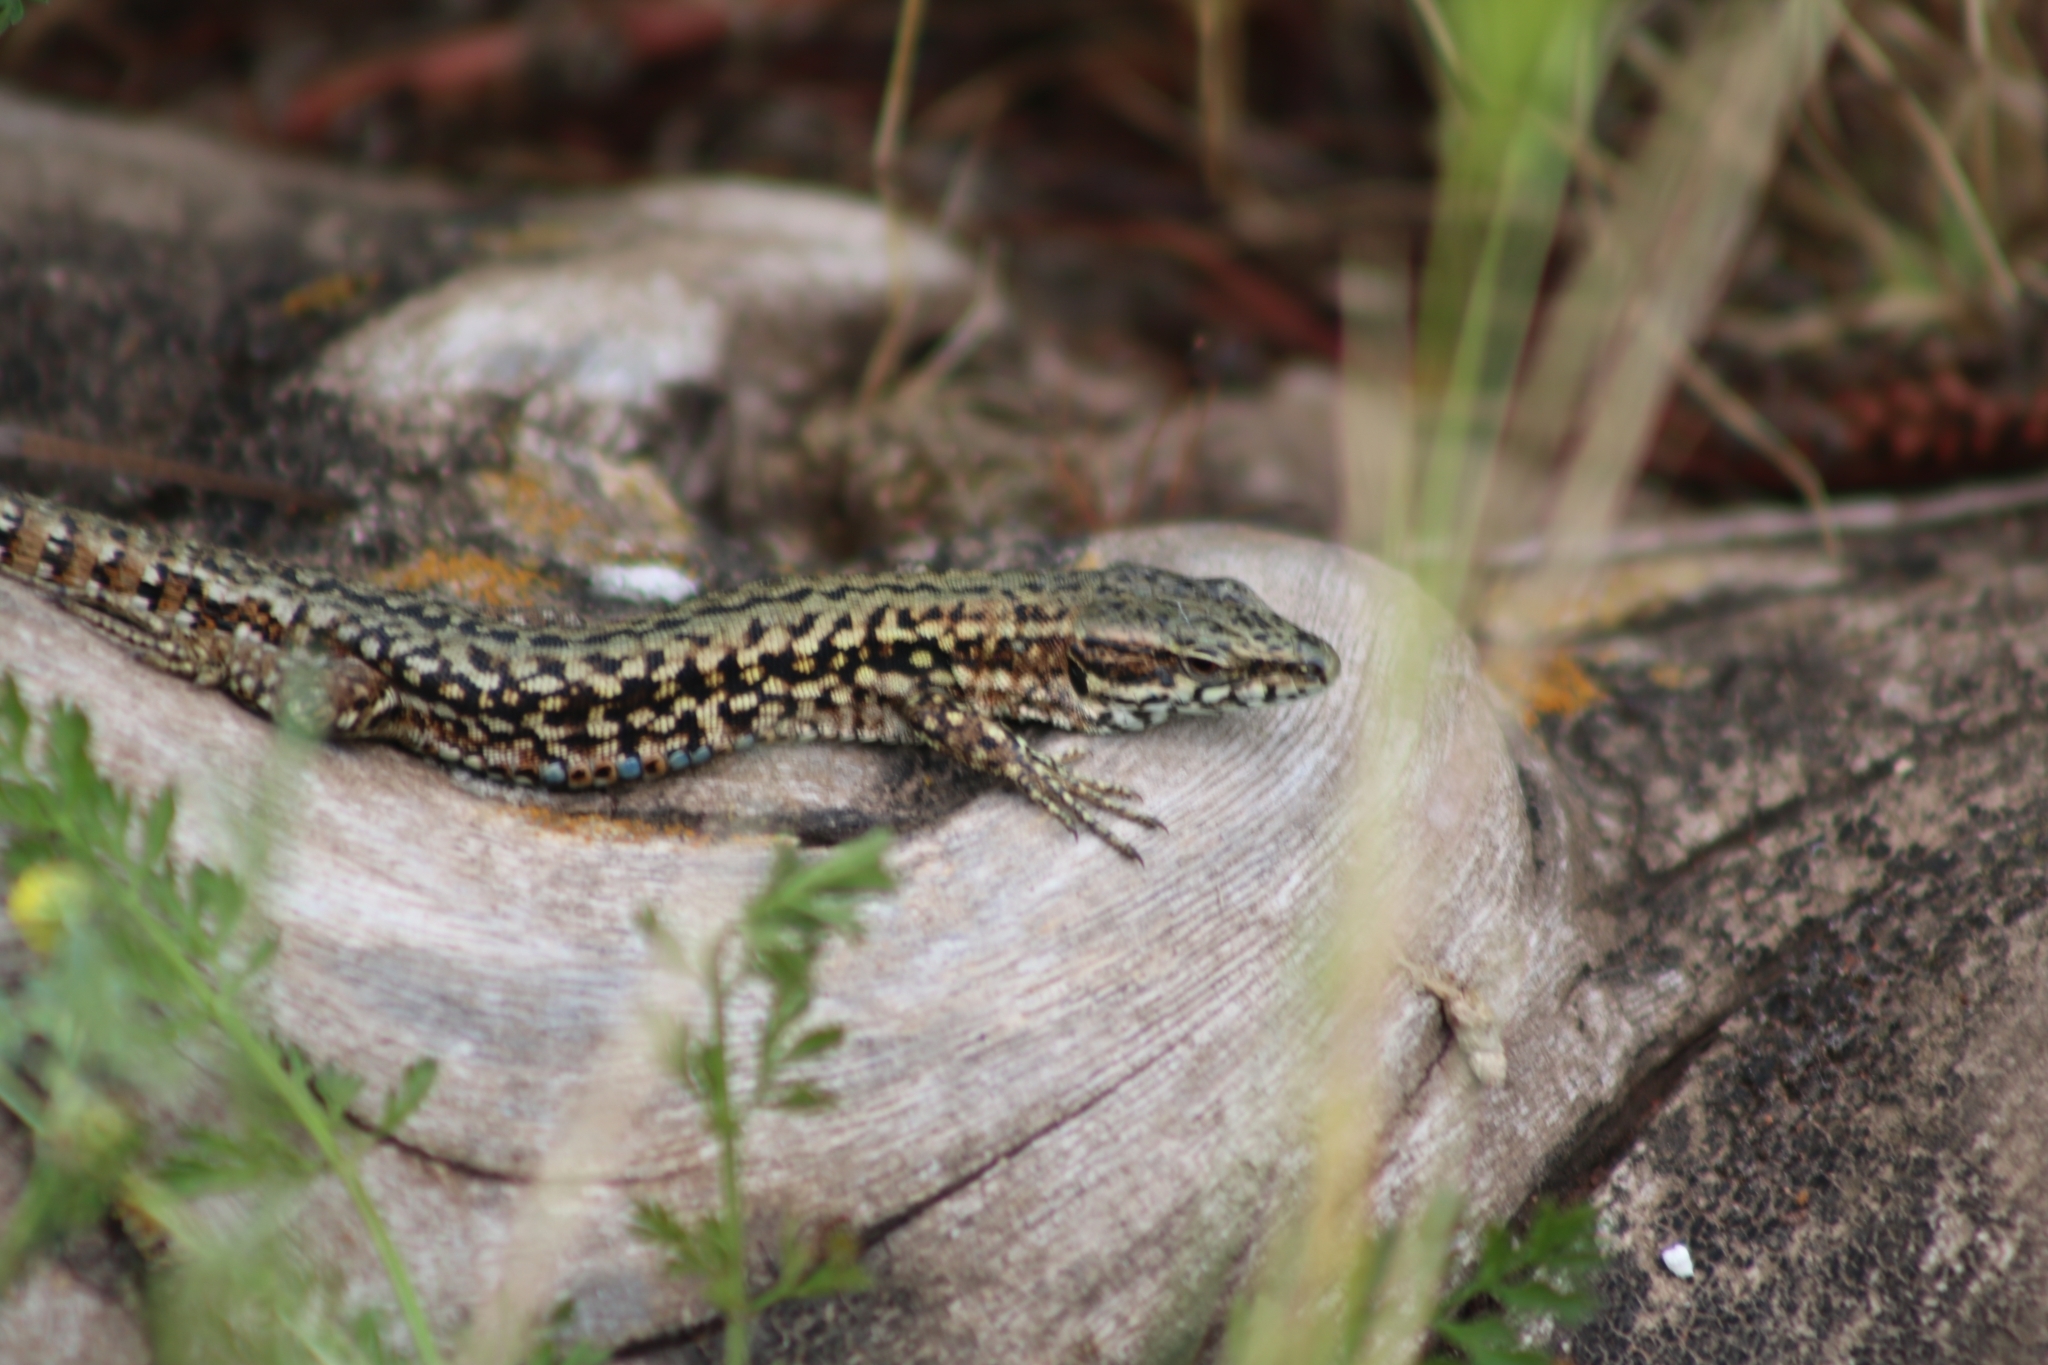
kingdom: Animalia
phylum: Chordata
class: Squamata
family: Lacertidae
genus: Podarcis
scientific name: Podarcis muralis
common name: Common wall lizard
